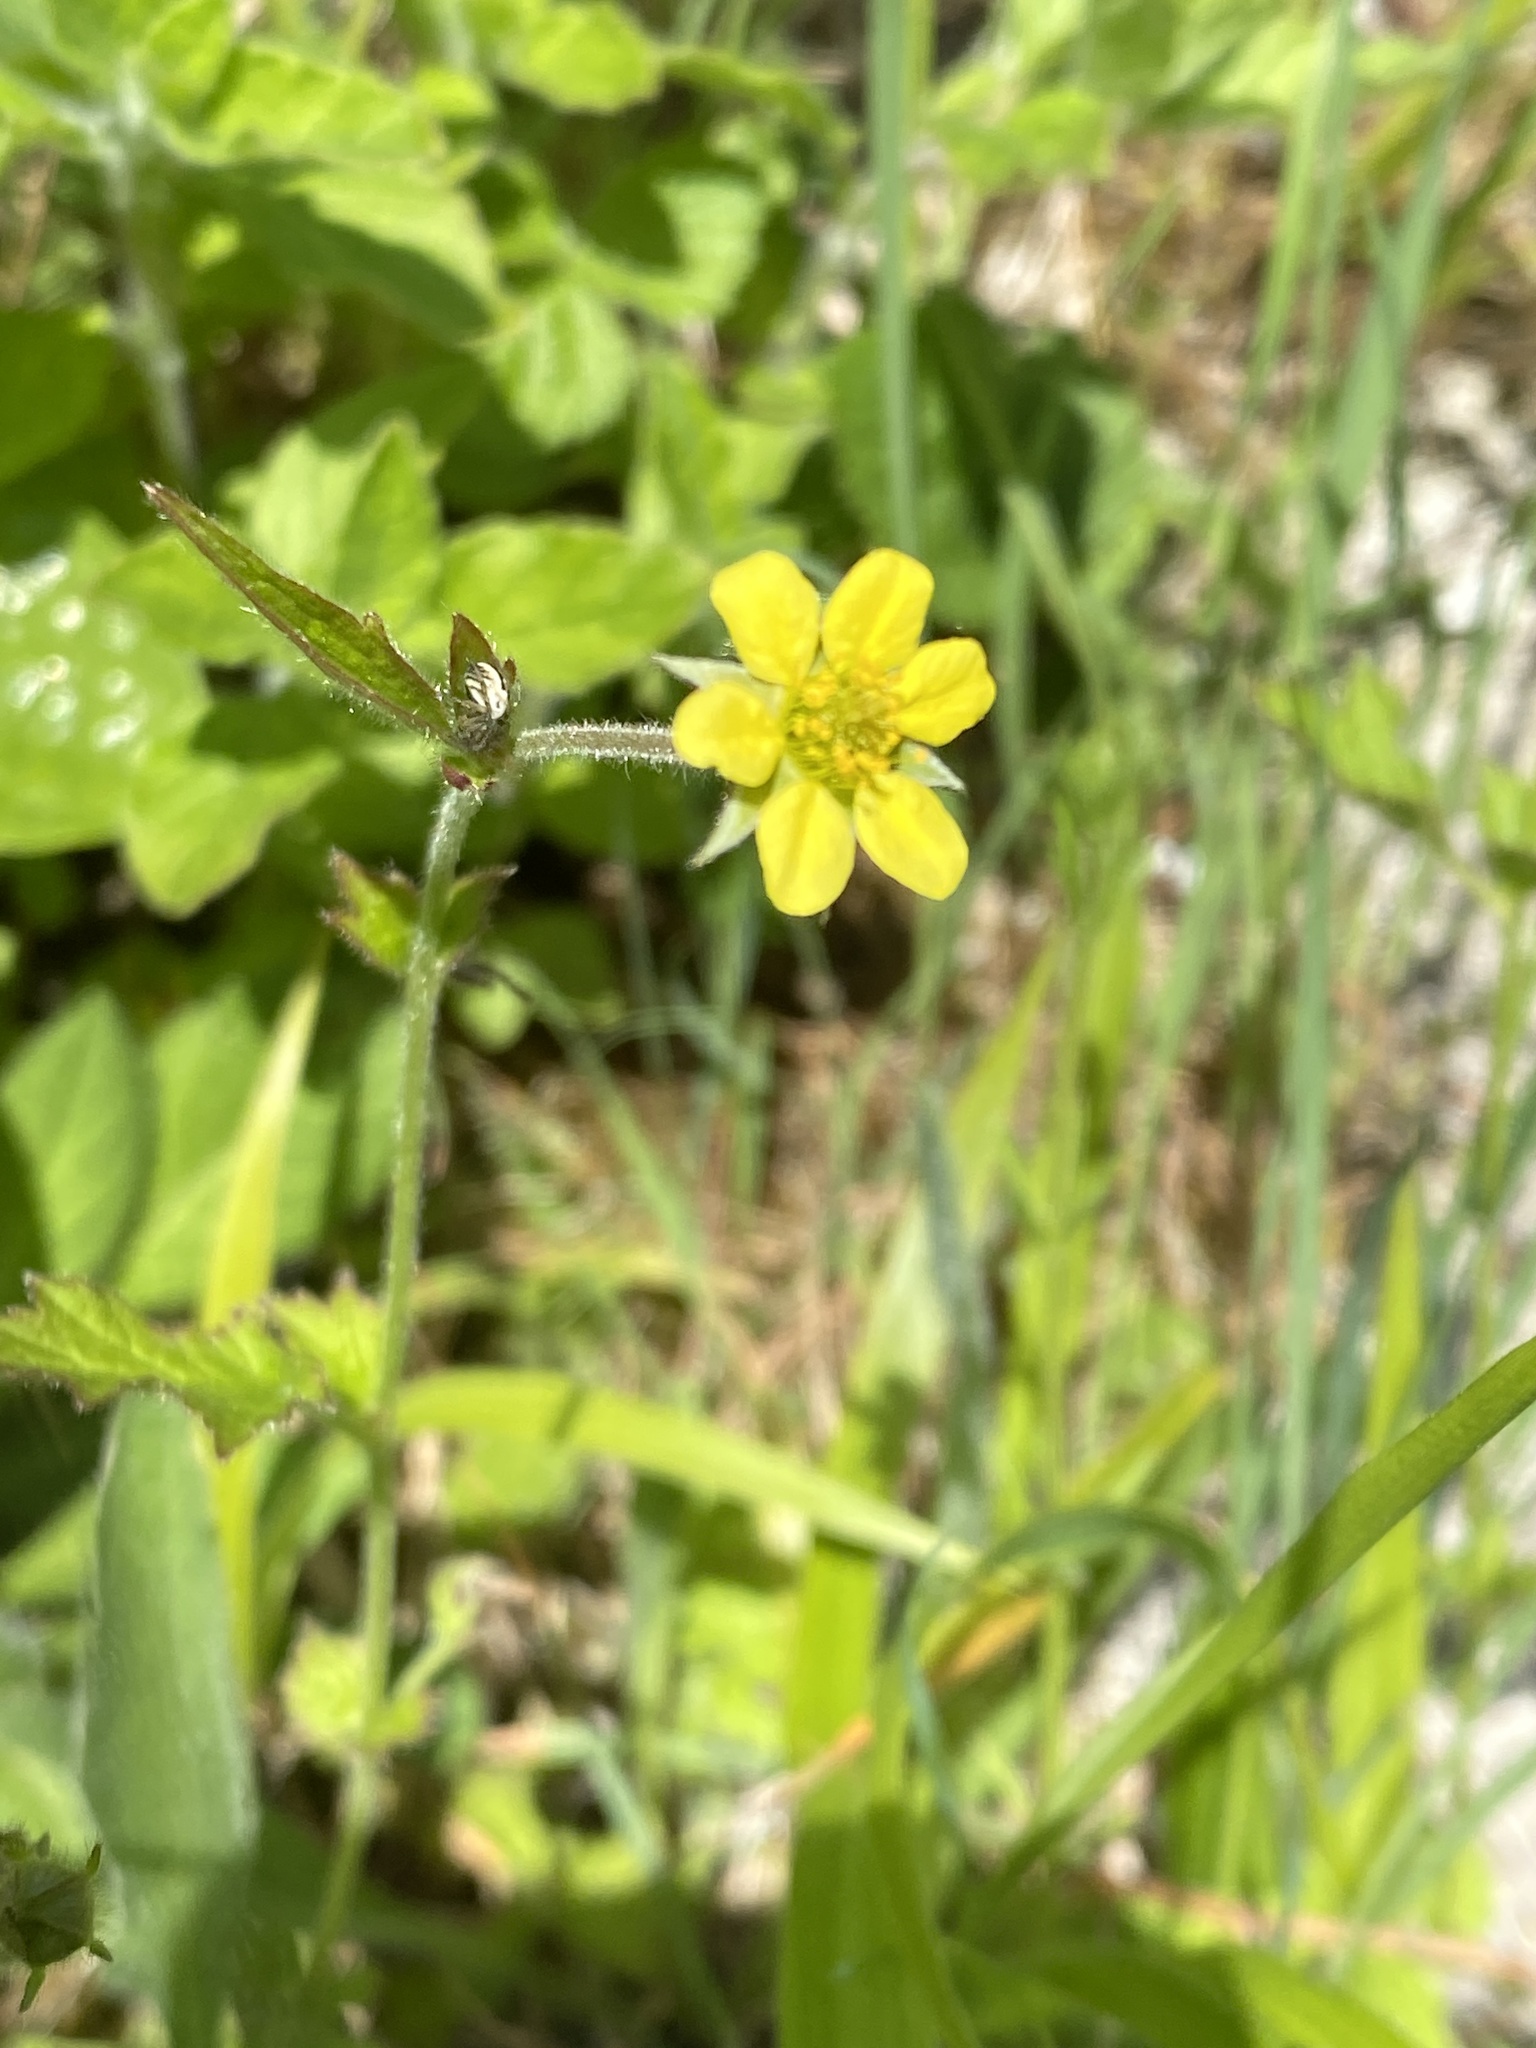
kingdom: Plantae
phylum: Tracheophyta
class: Magnoliopsida
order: Rosales
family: Rosaceae
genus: Geum
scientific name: Geum urbanum
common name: Wood avens
